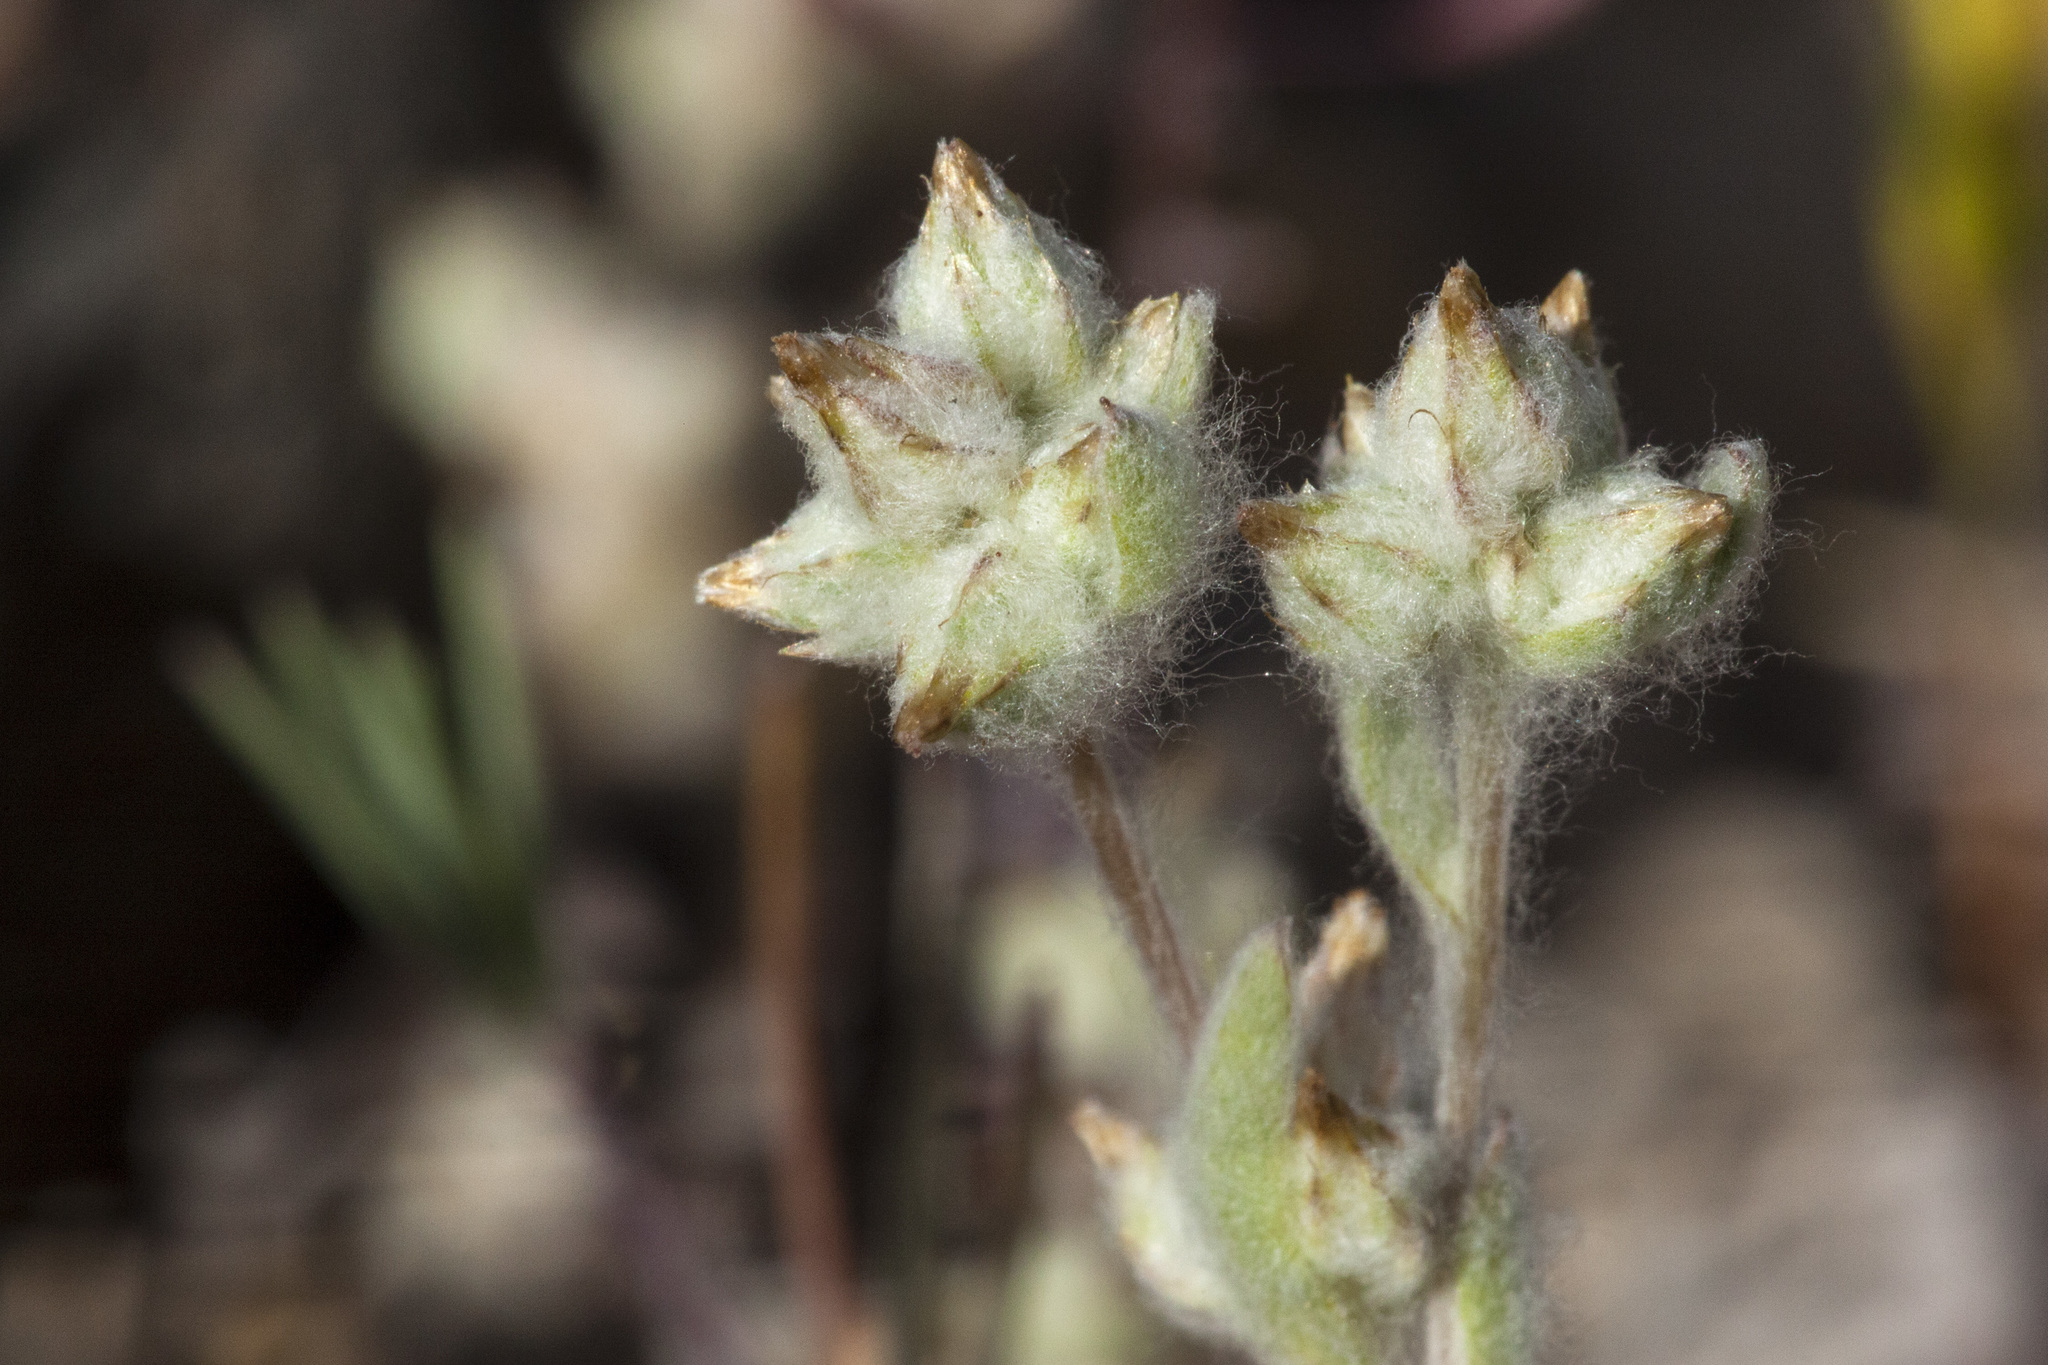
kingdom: Plantae
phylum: Tracheophyta
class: Magnoliopsida
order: Asterales
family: Asteraceae
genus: Logfia
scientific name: Logfia californica
